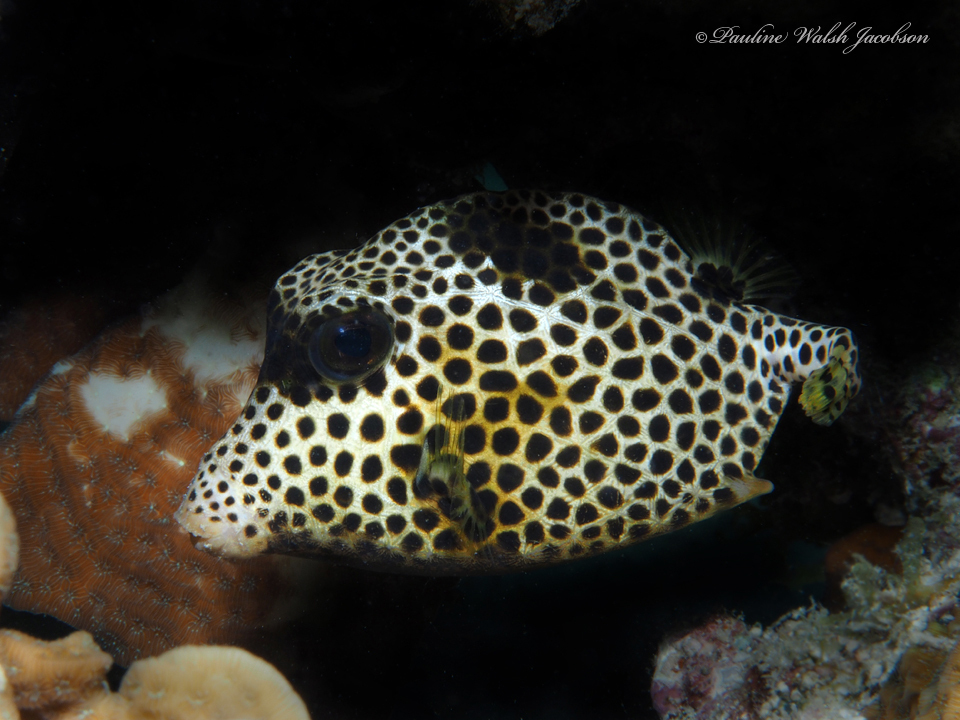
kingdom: Animalia
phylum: Chordata
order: Tetraodontiformes
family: Ostraciidae
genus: Lactophrys
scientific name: Lactophrys bicaudalis
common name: Spotted trunkfish
